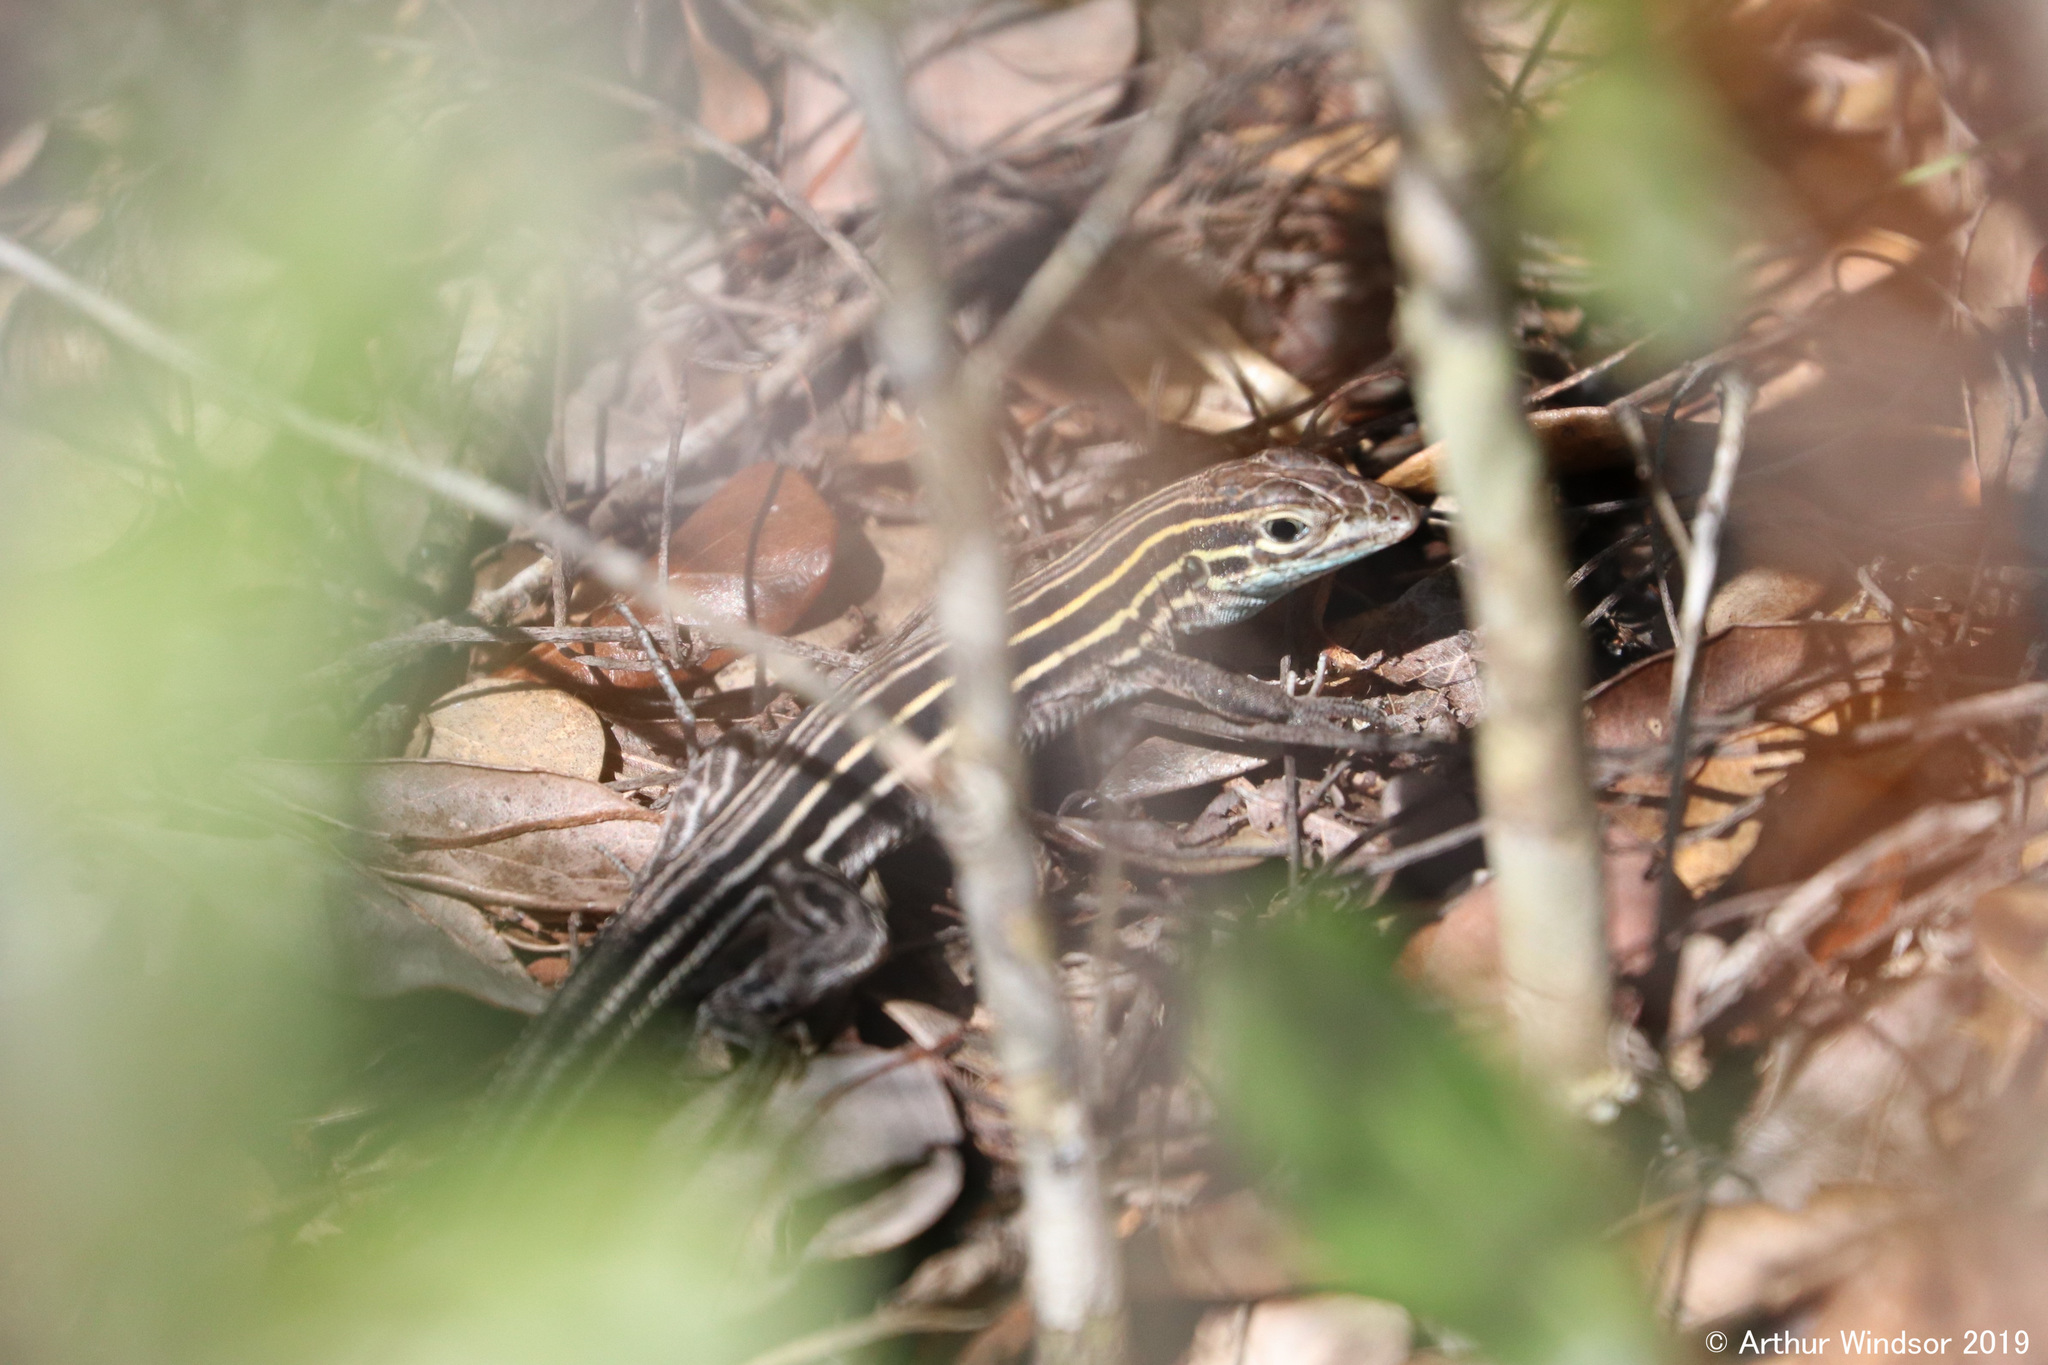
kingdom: Animalia
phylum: Chordata
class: Squamata
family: Teiidae
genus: Aspidoscelis
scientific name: Aspidoscelis sexlineatus
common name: Six-lined racerunner
